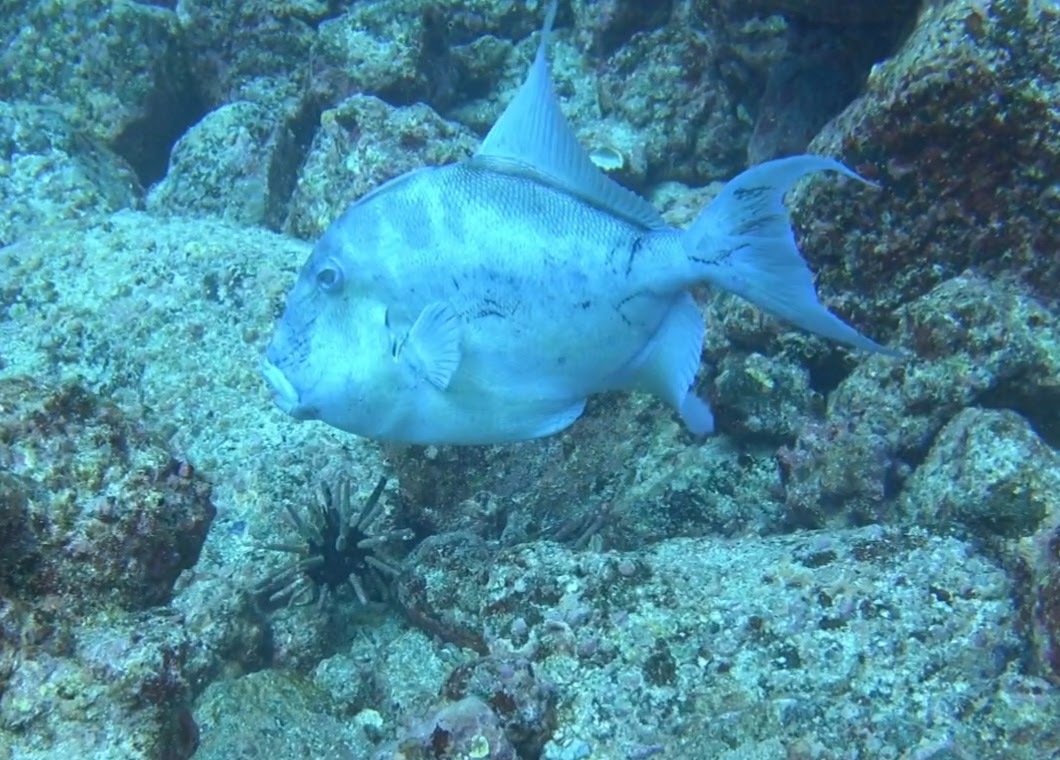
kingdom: Animalia
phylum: Chordata
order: Tetraodontiformes
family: Balistidae
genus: Balistes
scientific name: Balistes polylepis
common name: Finescale triggerfish
